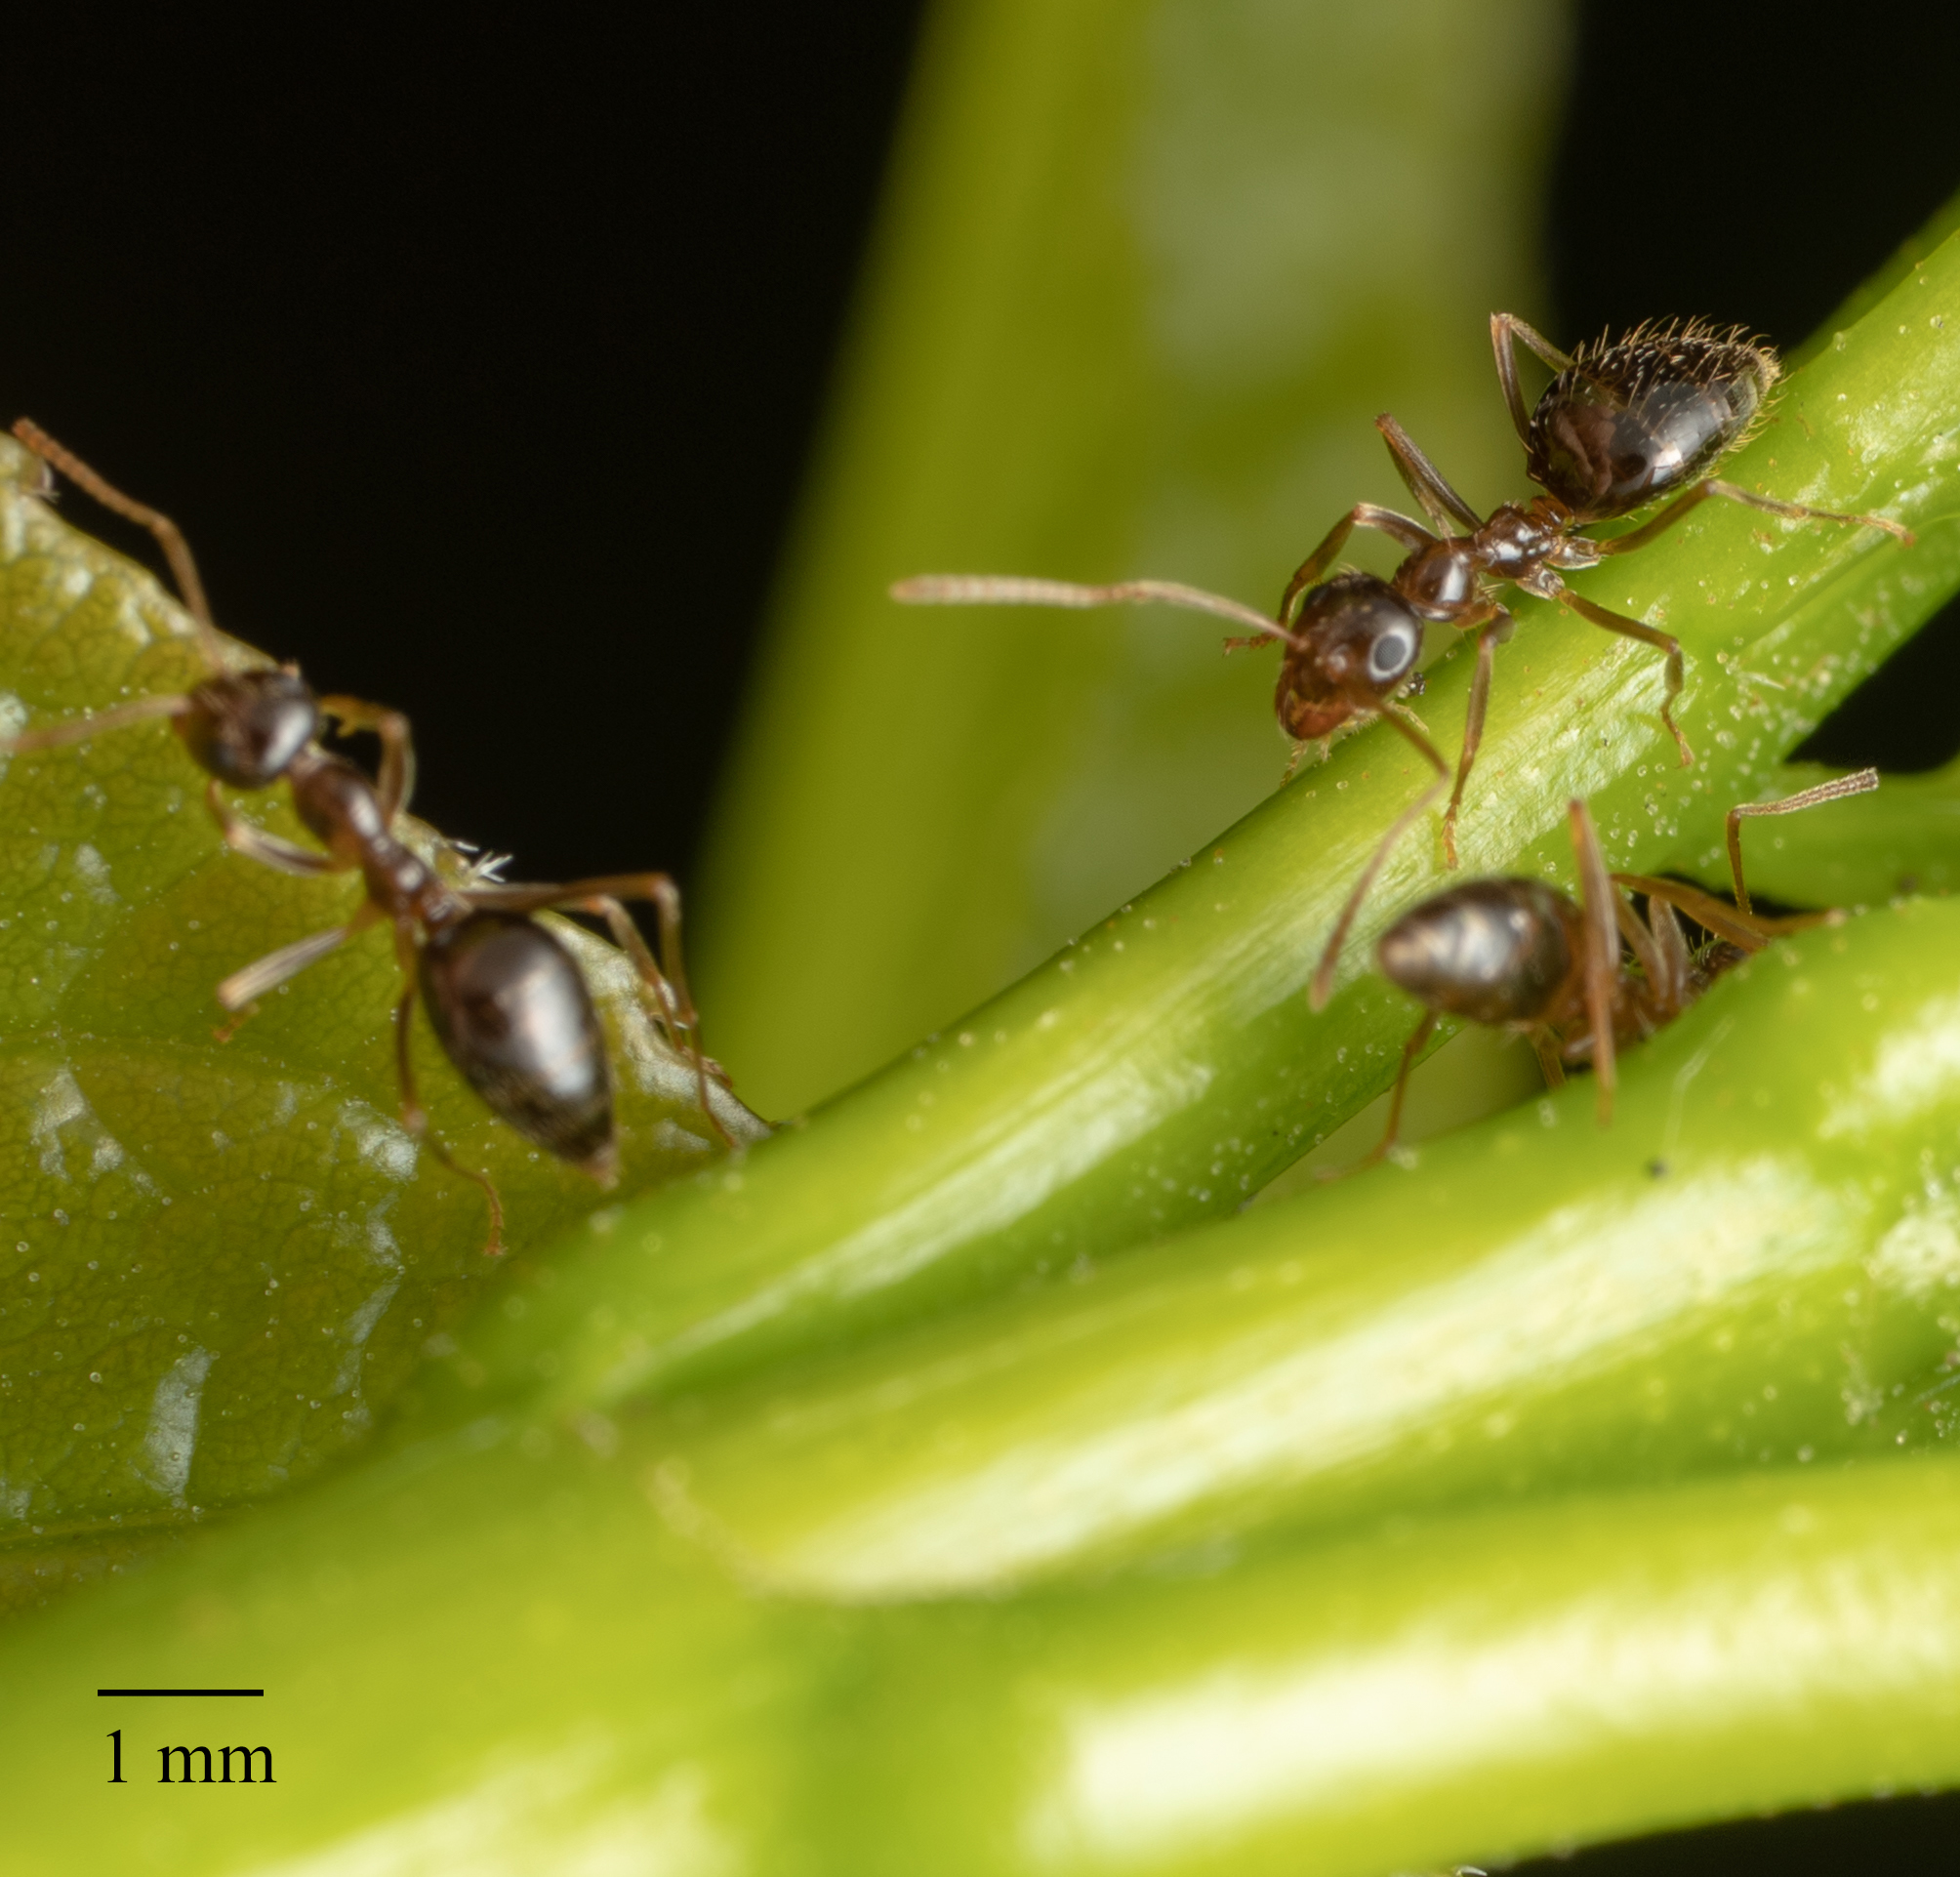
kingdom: Animalia
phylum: Arthropoda
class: Insecta
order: Hymenoptera
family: Formicidae
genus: Prenolepis
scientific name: Prenolepis imparis
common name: Small honey ant
